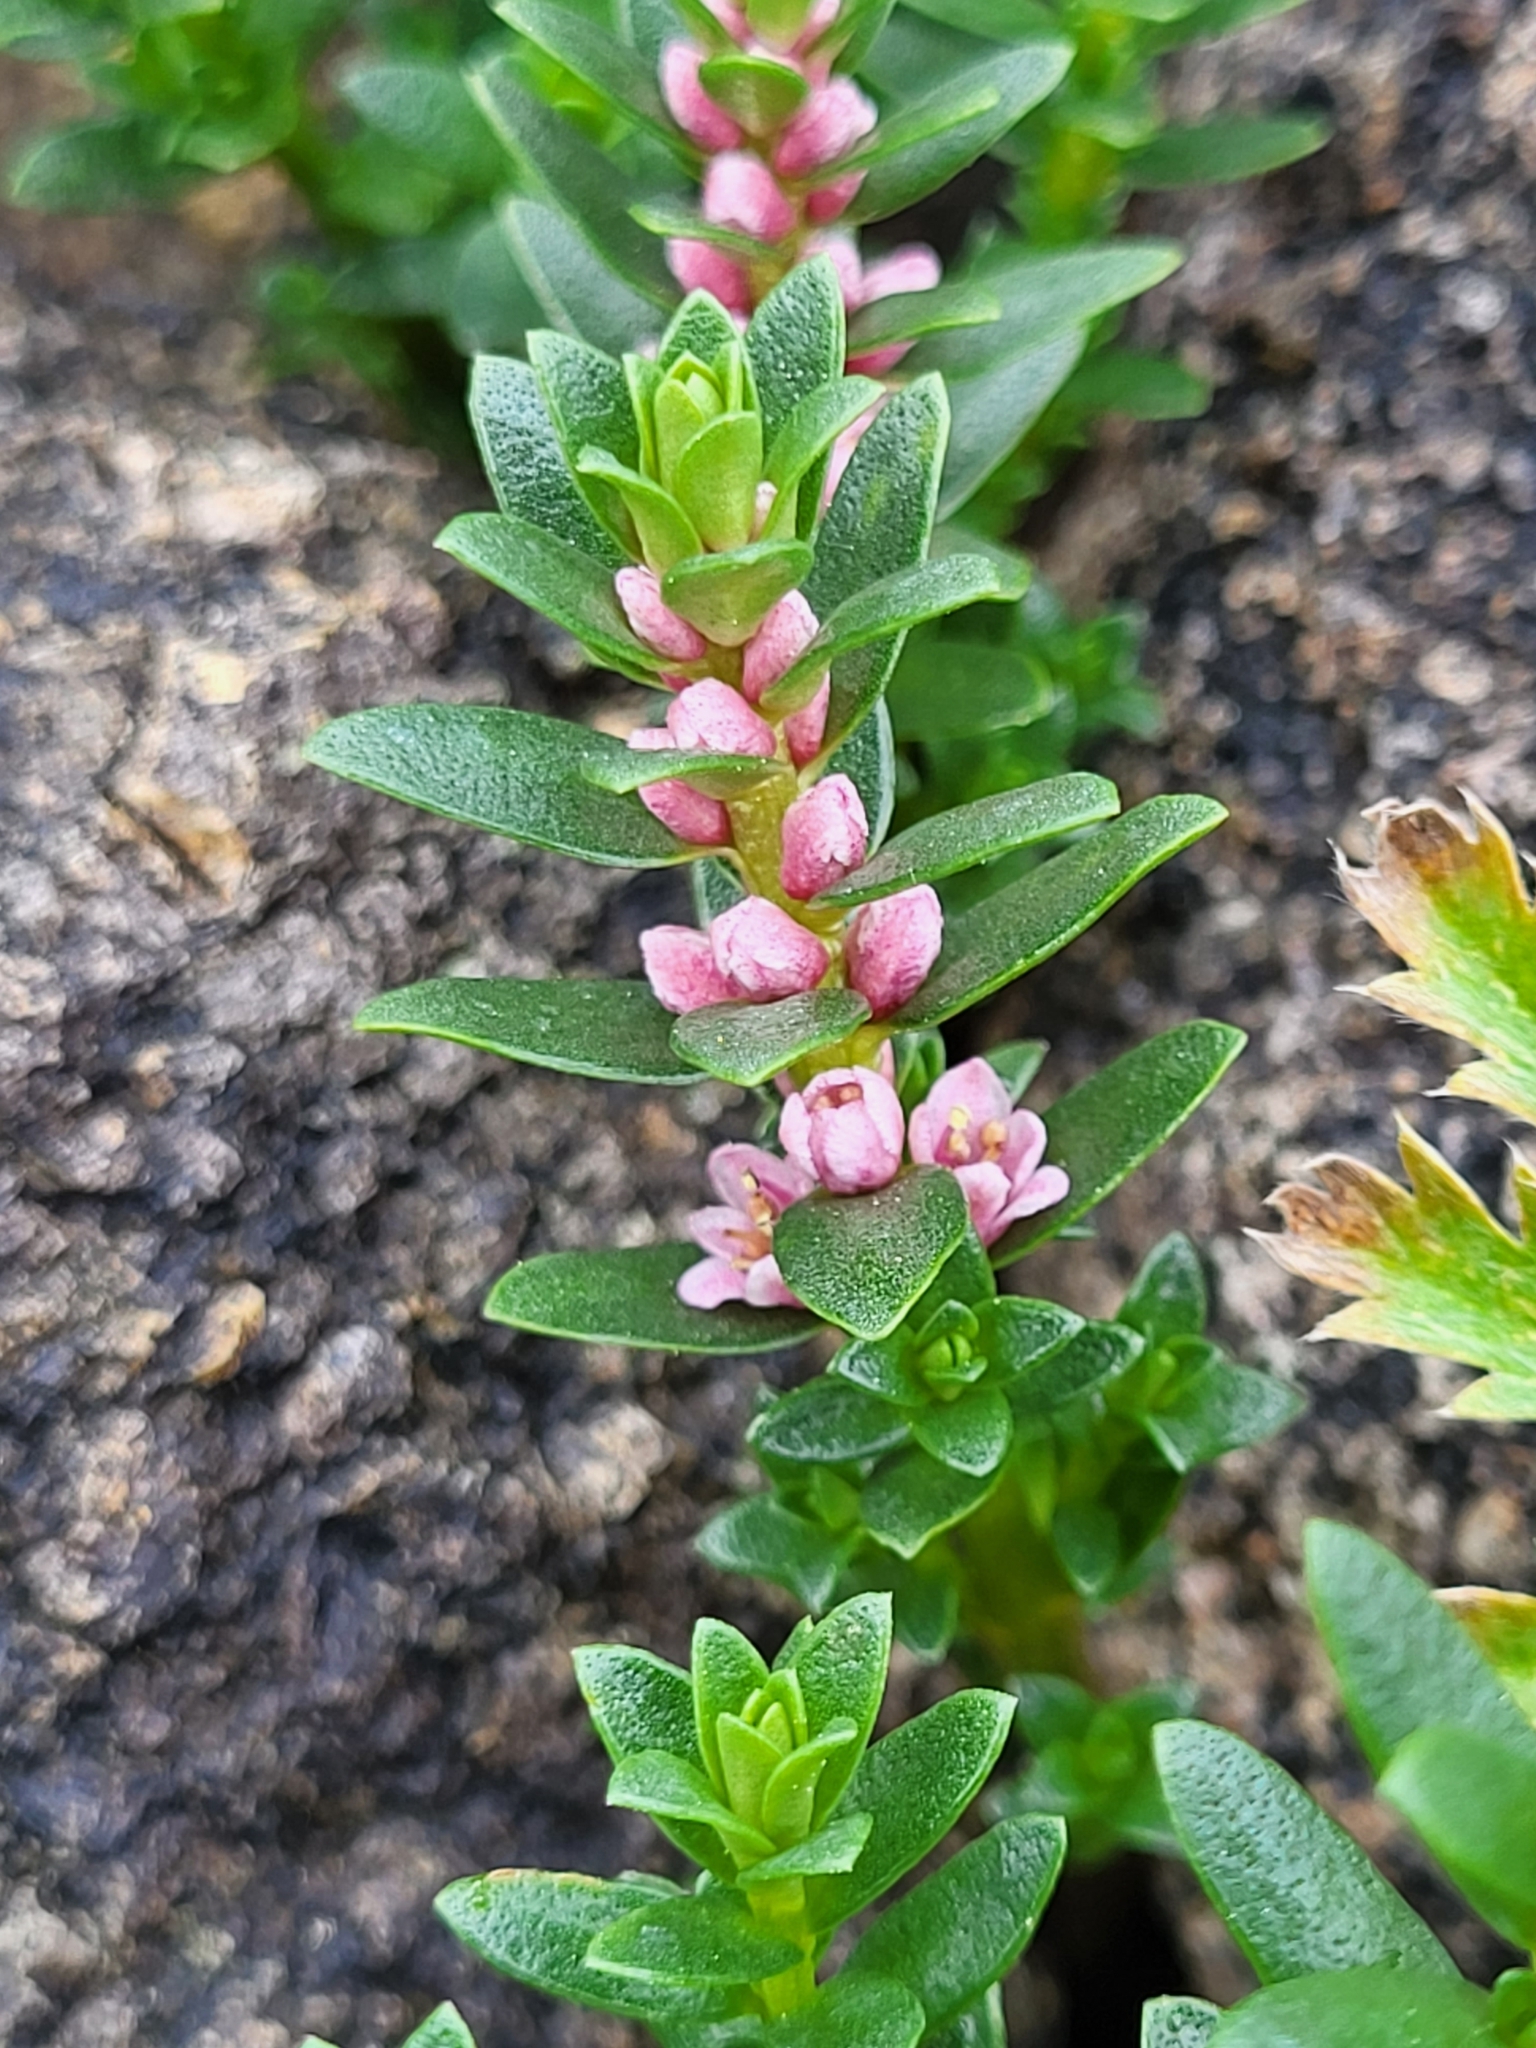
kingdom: Plantae
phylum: Tracheophyta
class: Magnoliopsida
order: Ericales
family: Primulaceae
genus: Lysimachia
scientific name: Lysimachia maritima
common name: Sea milkwort
